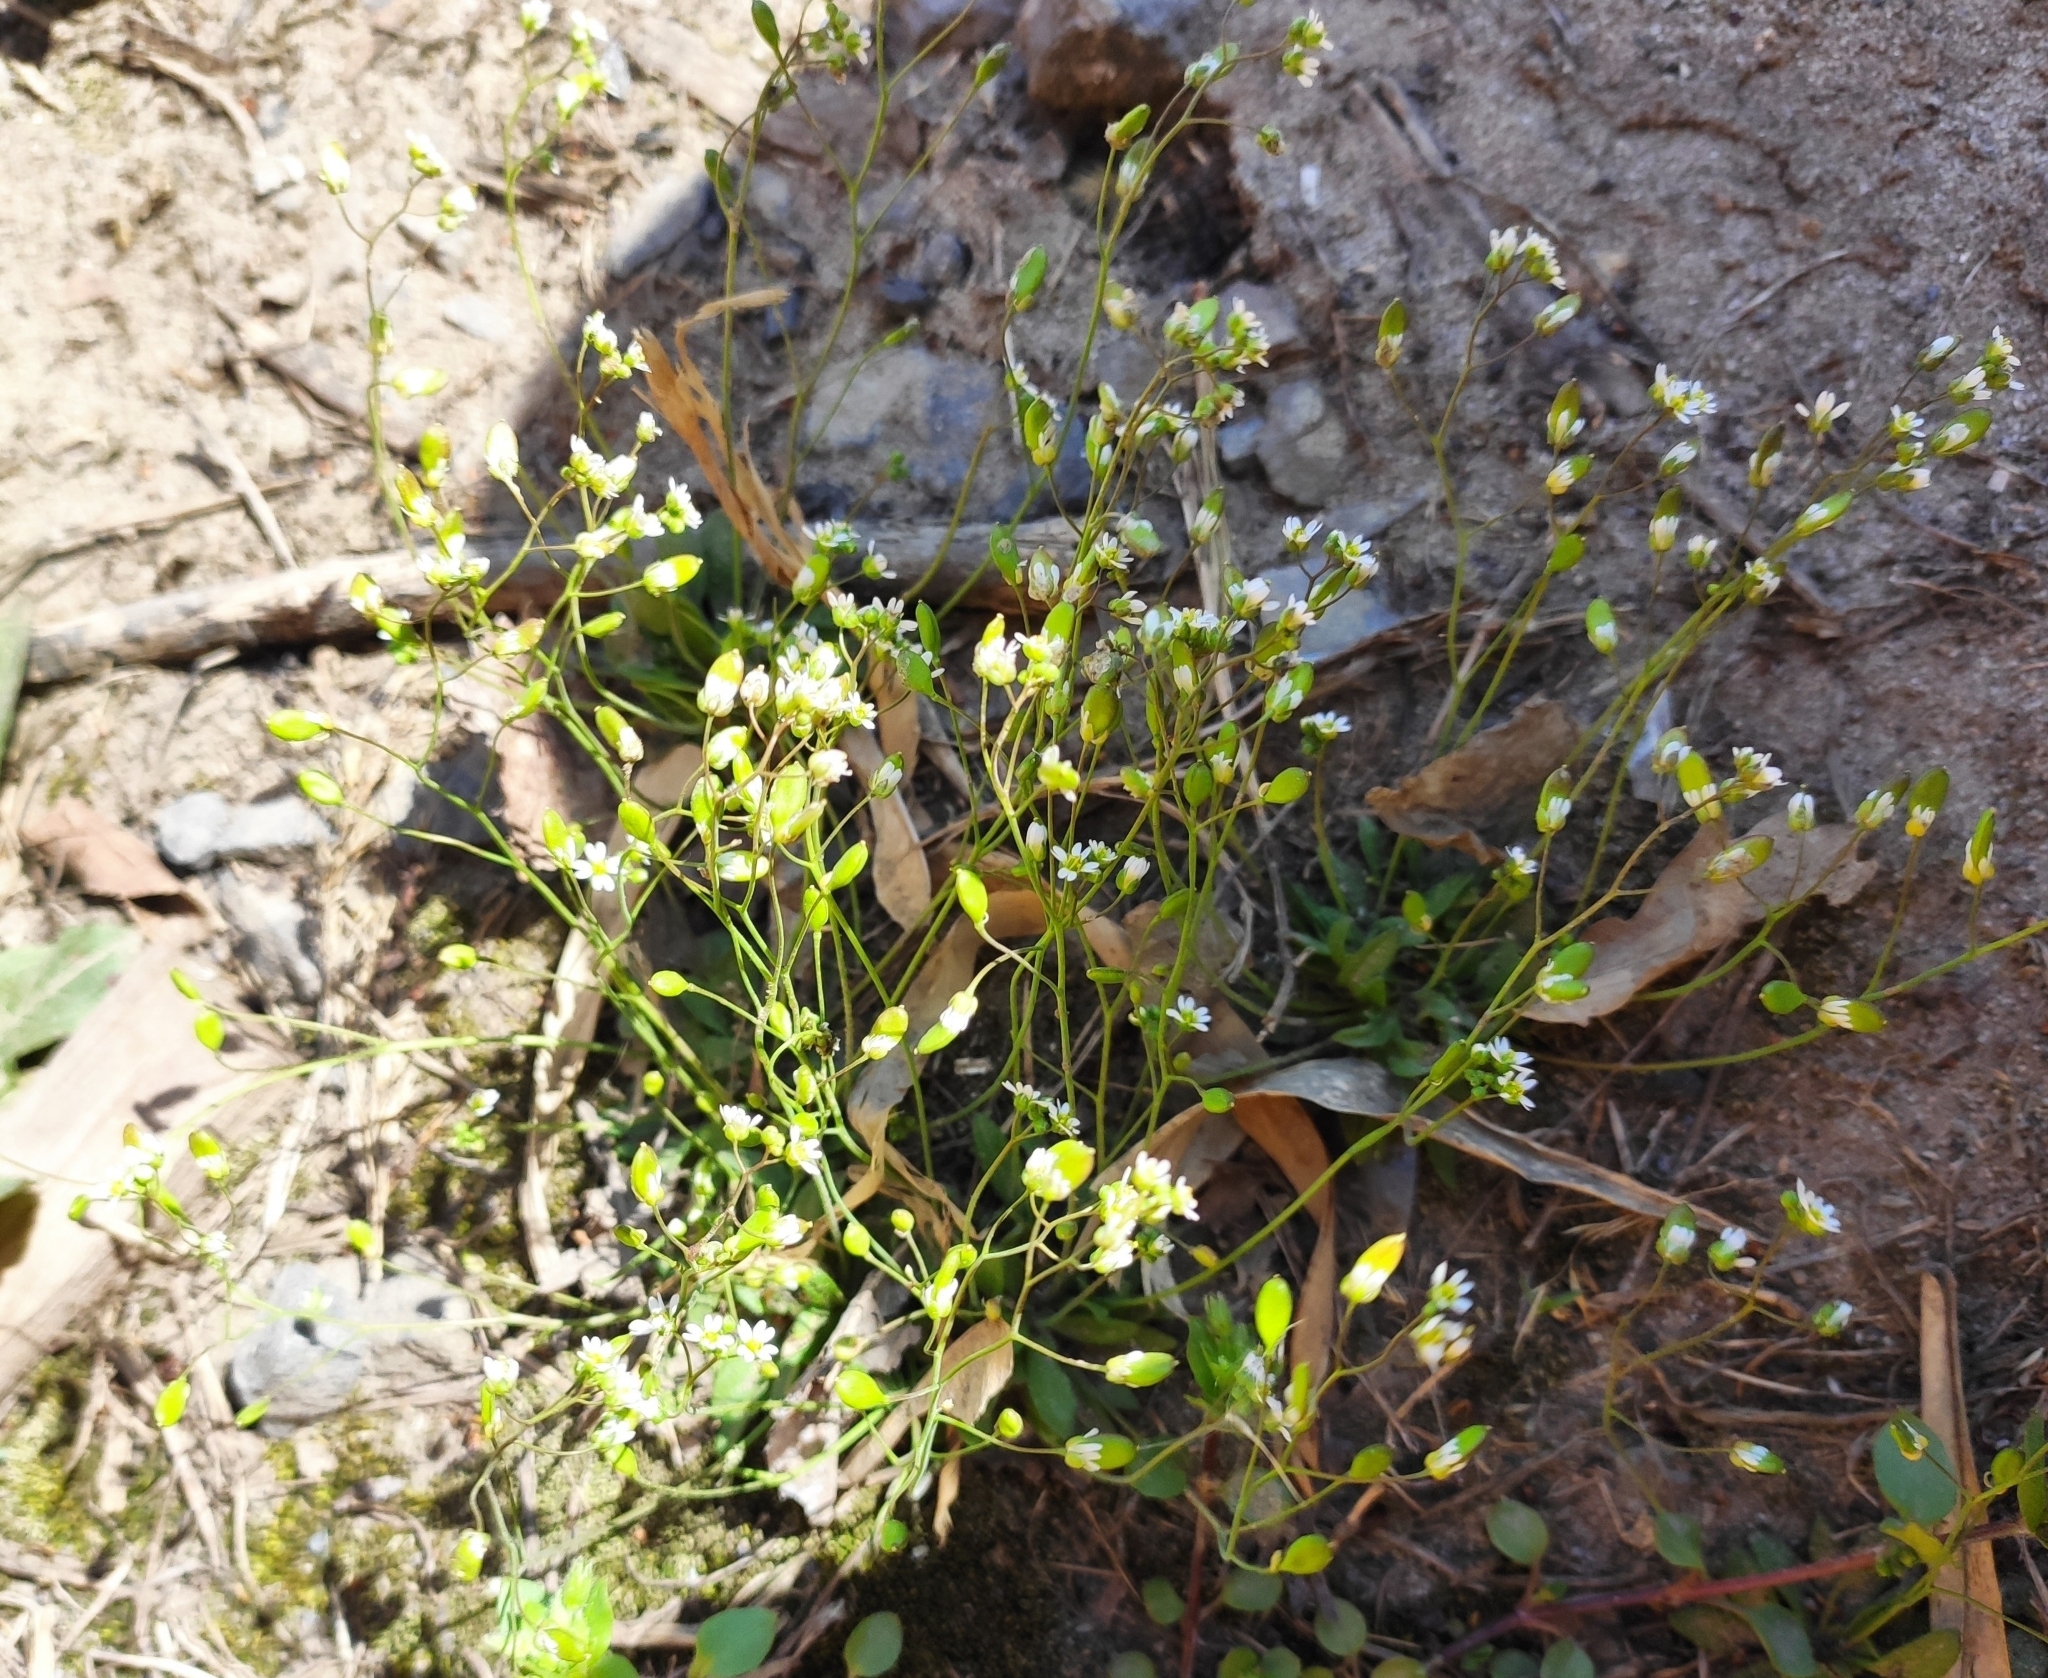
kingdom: Plantae
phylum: Tracheophyta
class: Magnoliopsida
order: Brassicales
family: Brassicaceae
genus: Draba
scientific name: Draba verna
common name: Spring draba
